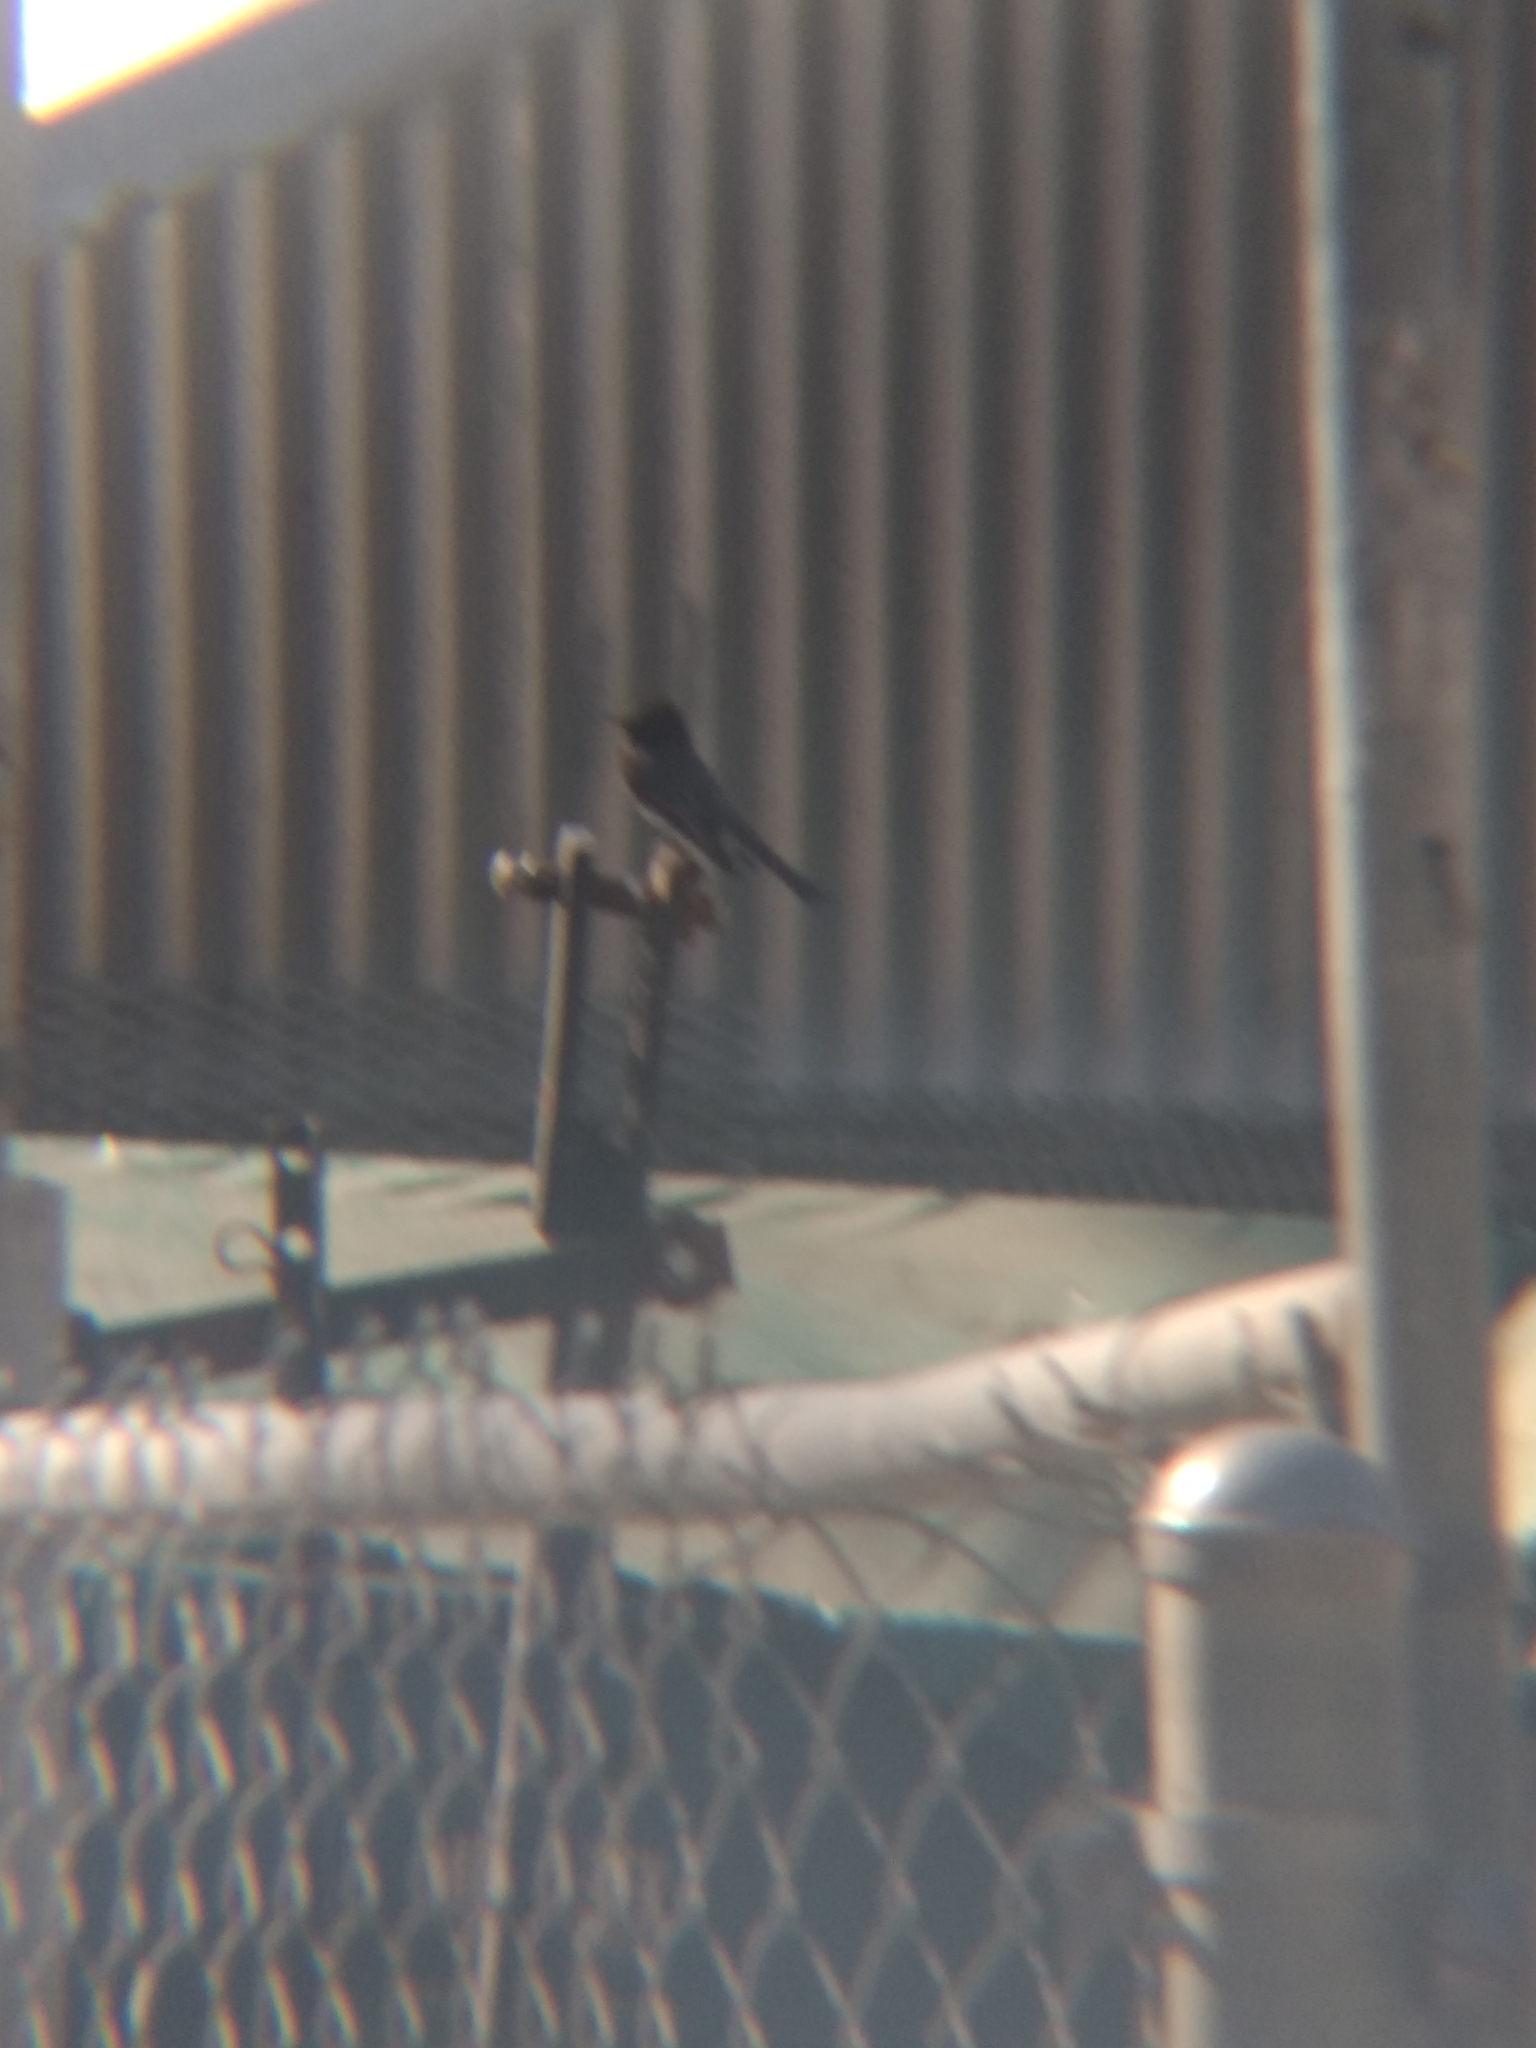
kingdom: Animalia
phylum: Chordata
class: Aves
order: Passeriformes
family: Tyrannidae
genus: Sayornis
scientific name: Sayornis nigricans
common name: Black phoebe
